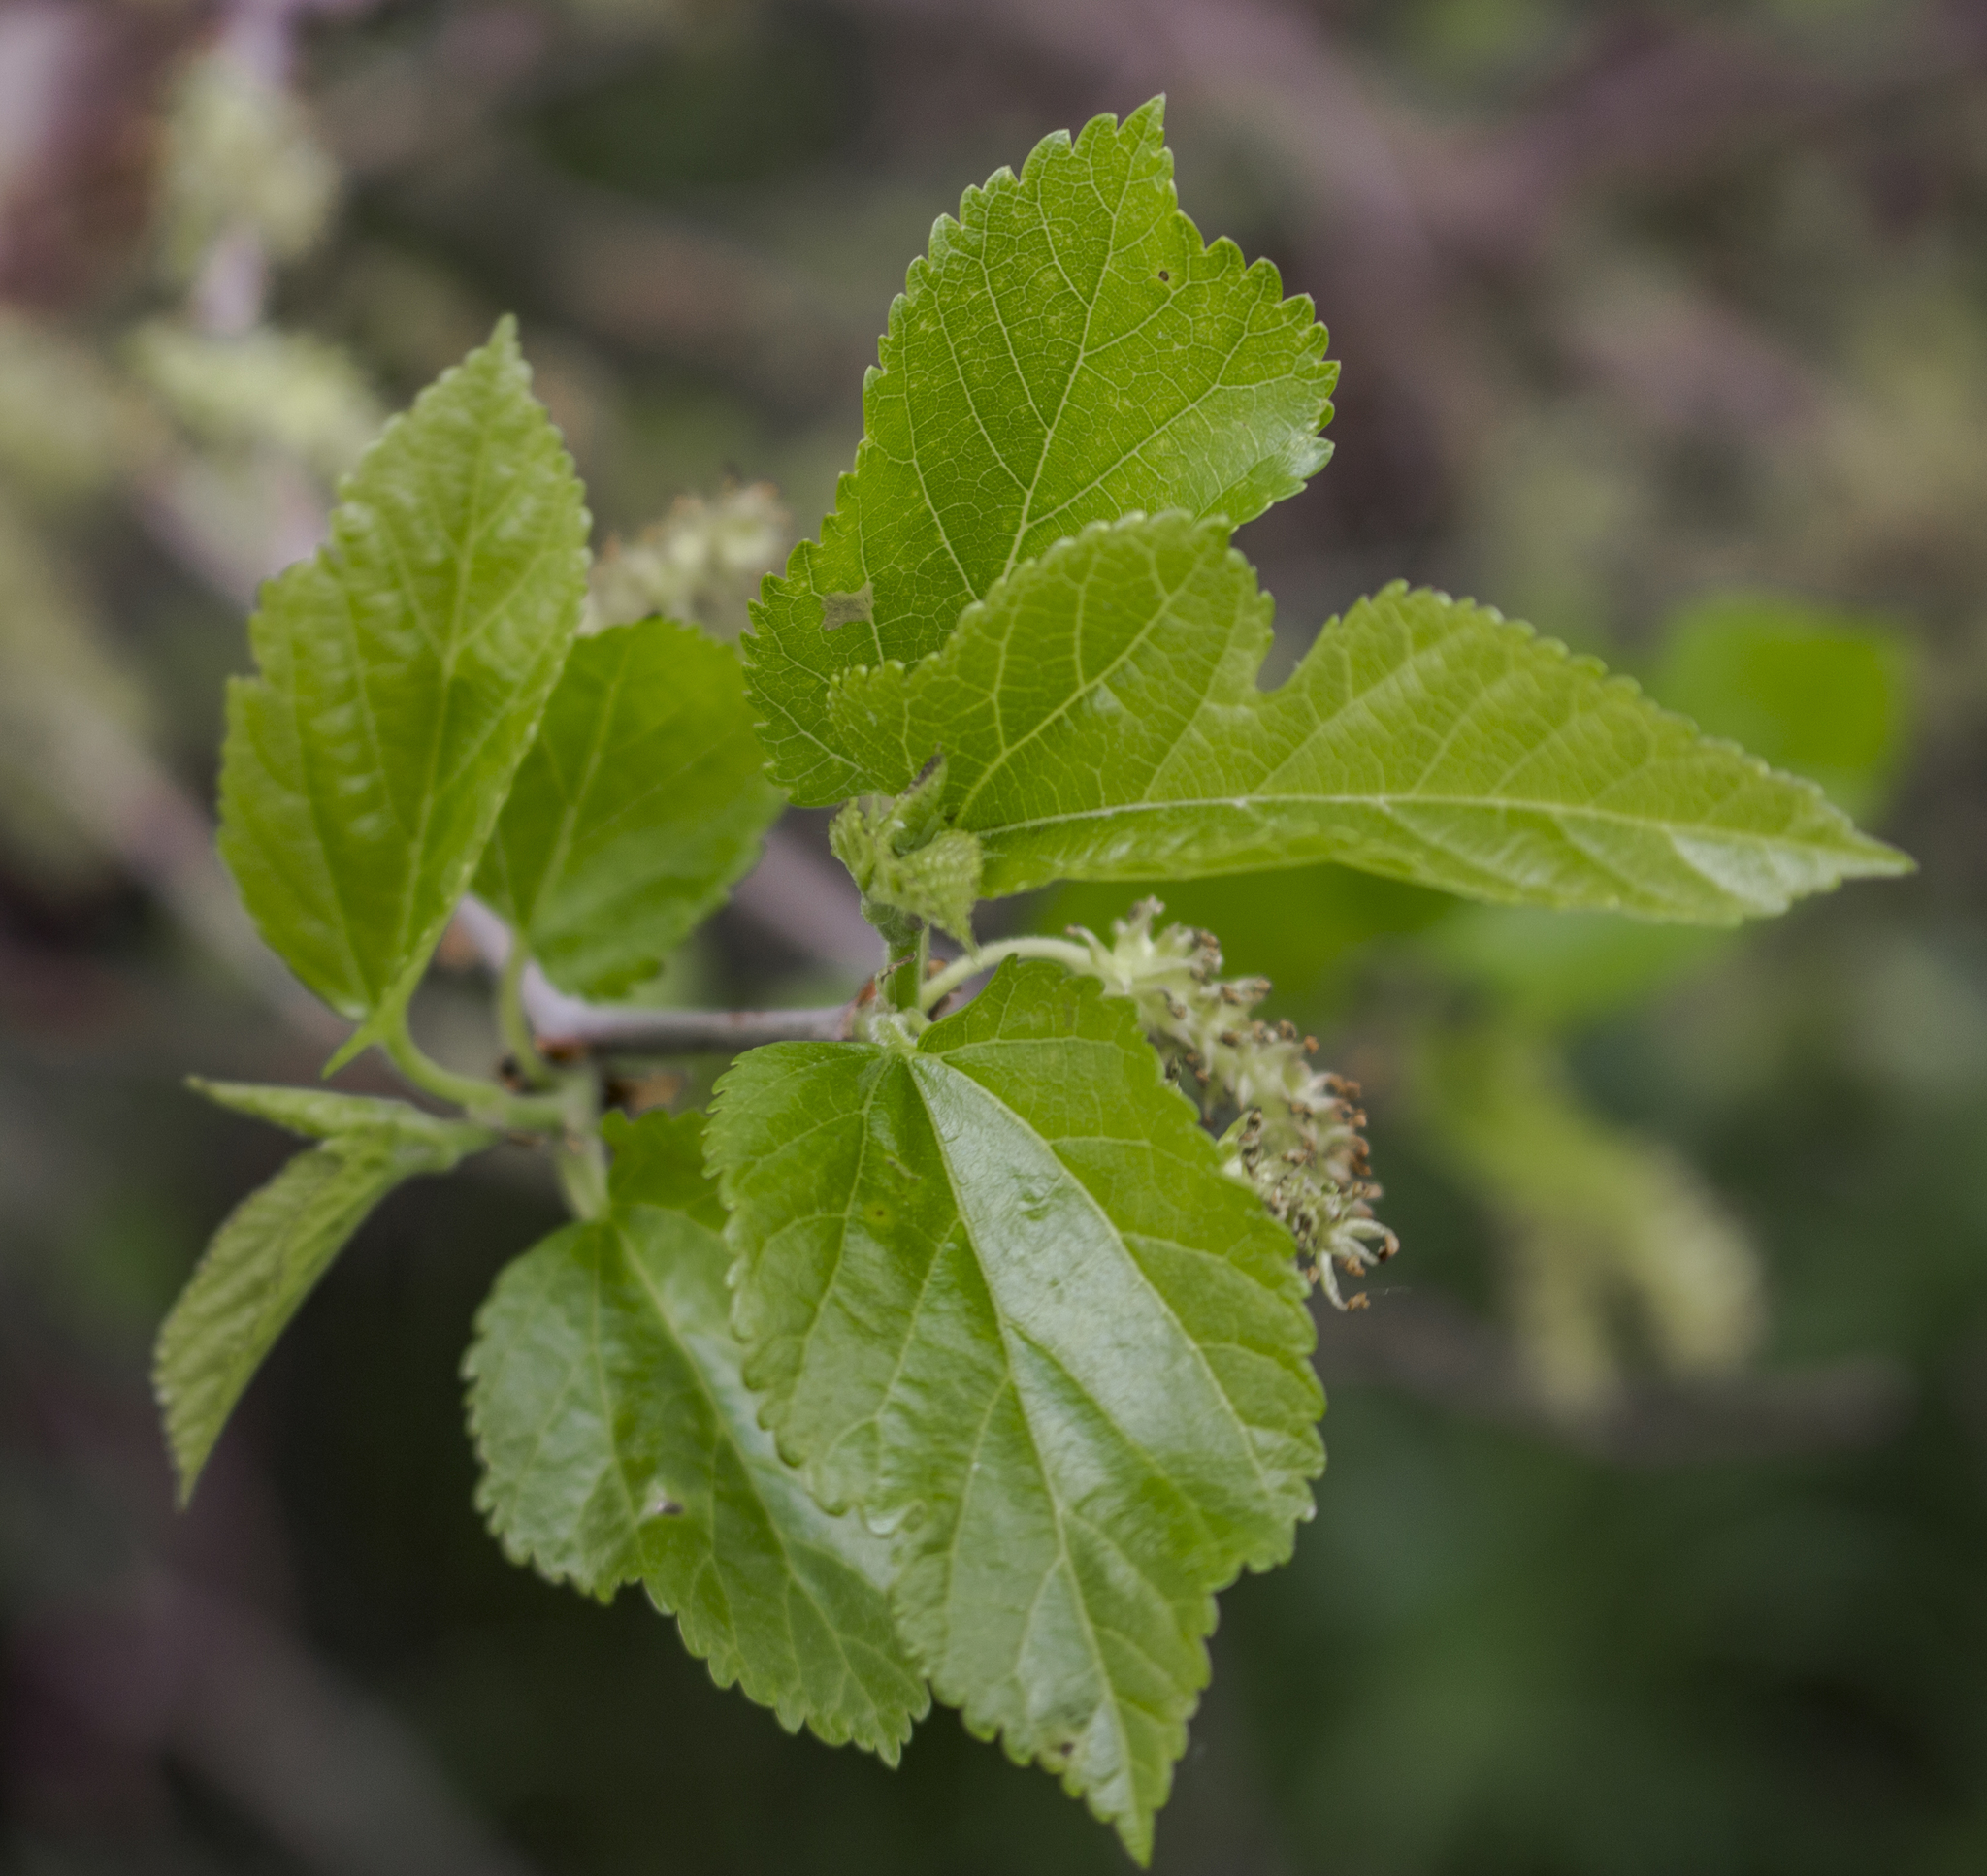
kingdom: Plantae
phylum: Tracheophyta
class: Magnoliopsida
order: Rosales
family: Moraceae
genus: Morus
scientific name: Morus alba
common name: White mulberry
